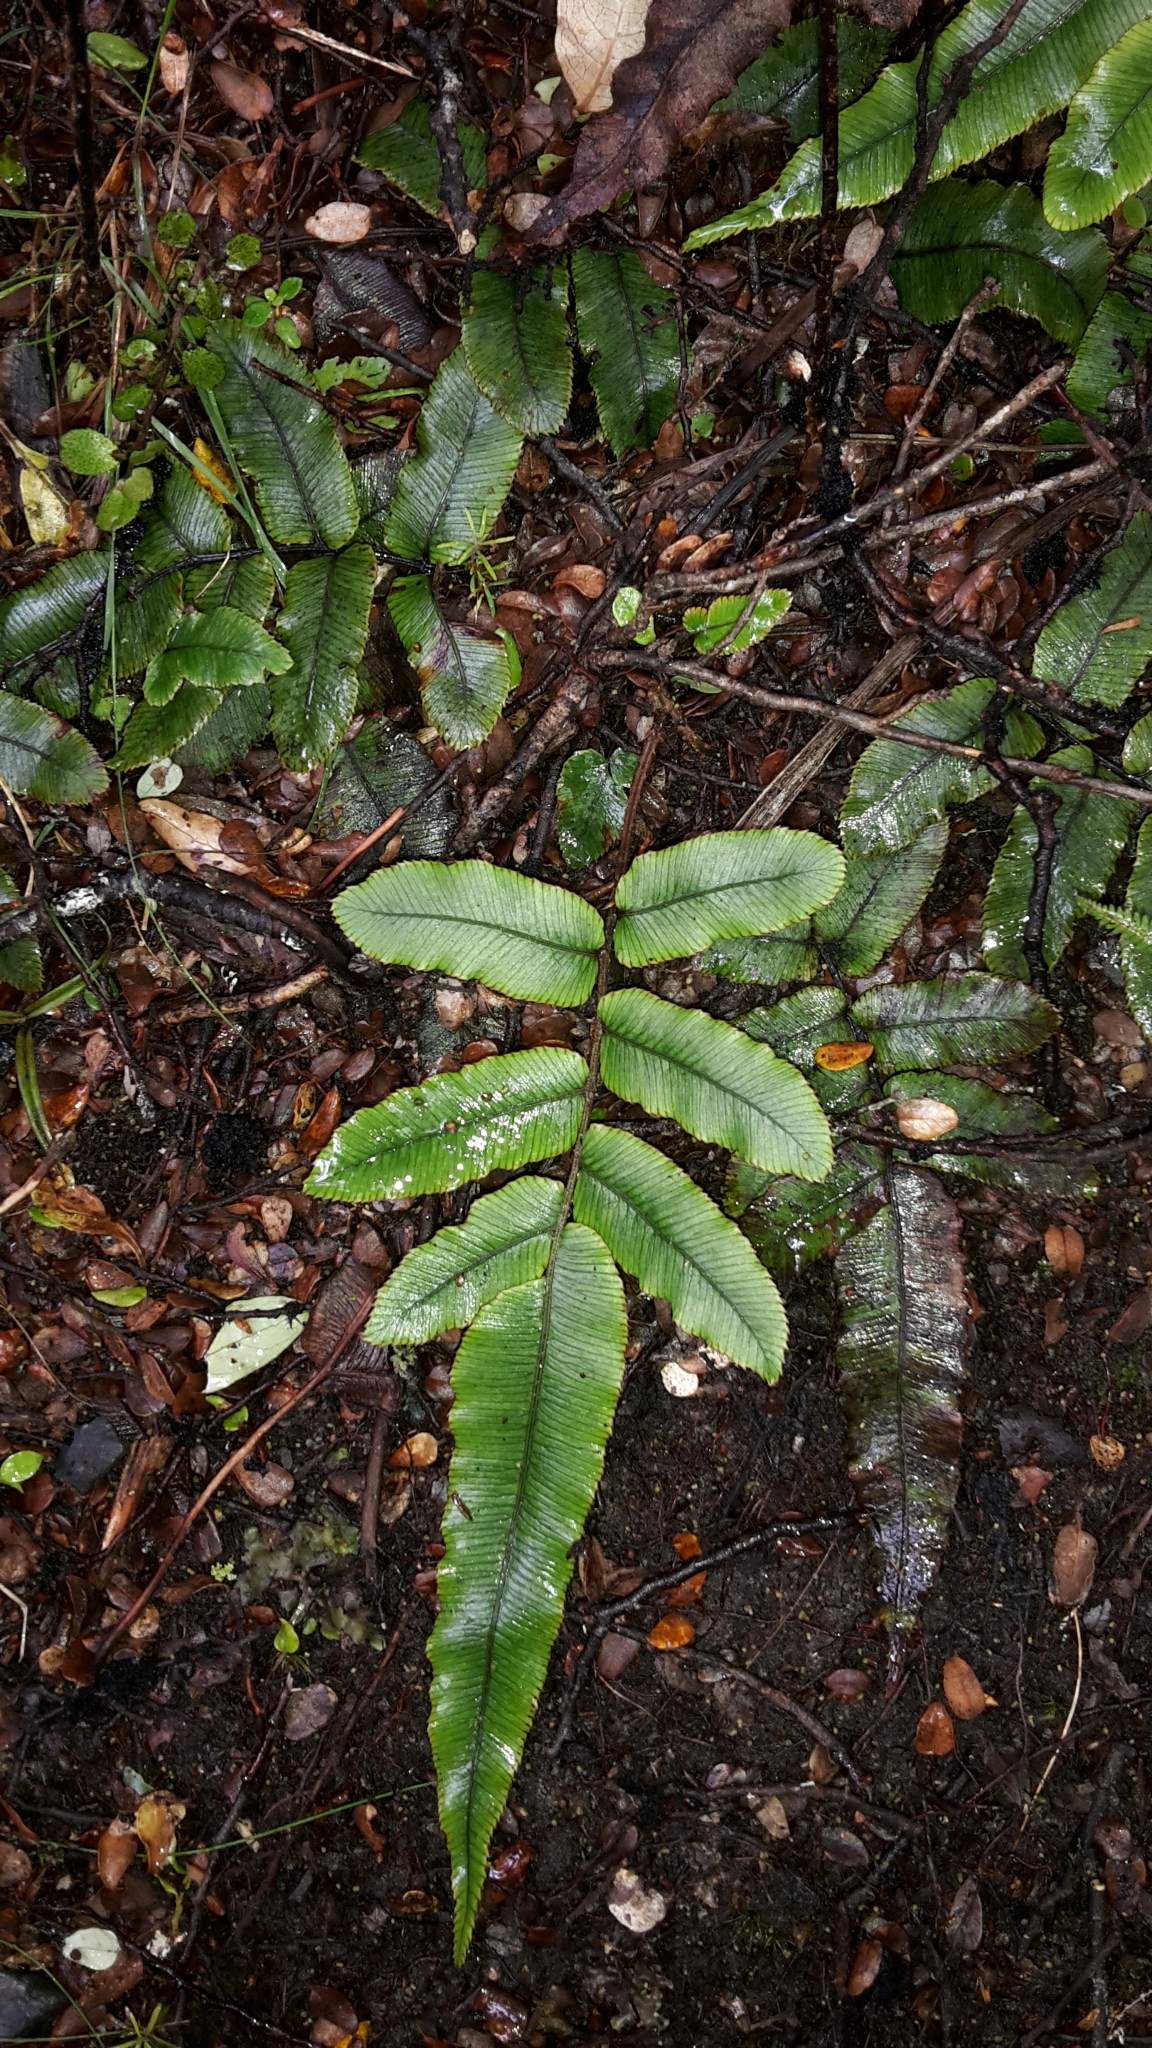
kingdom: Plantae
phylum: Tracheophyta
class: Polypodiopsida
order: Polypodiales
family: Blechnaceae
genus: Parablechnum
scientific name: Parablechnum procerum
